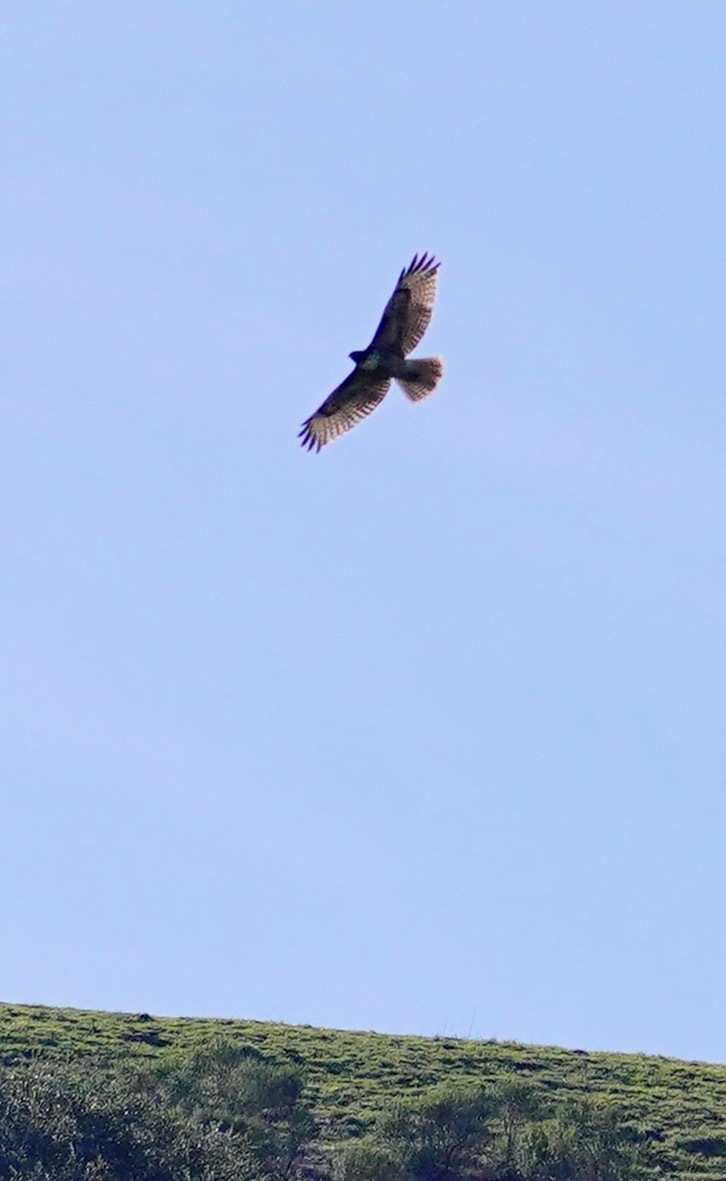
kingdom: Animalia
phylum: Chordata
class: Aves
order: Accipitriformes
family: Accipitridae
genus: Buteo
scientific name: Buteo jamaicensis
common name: Red-tailed hawk
